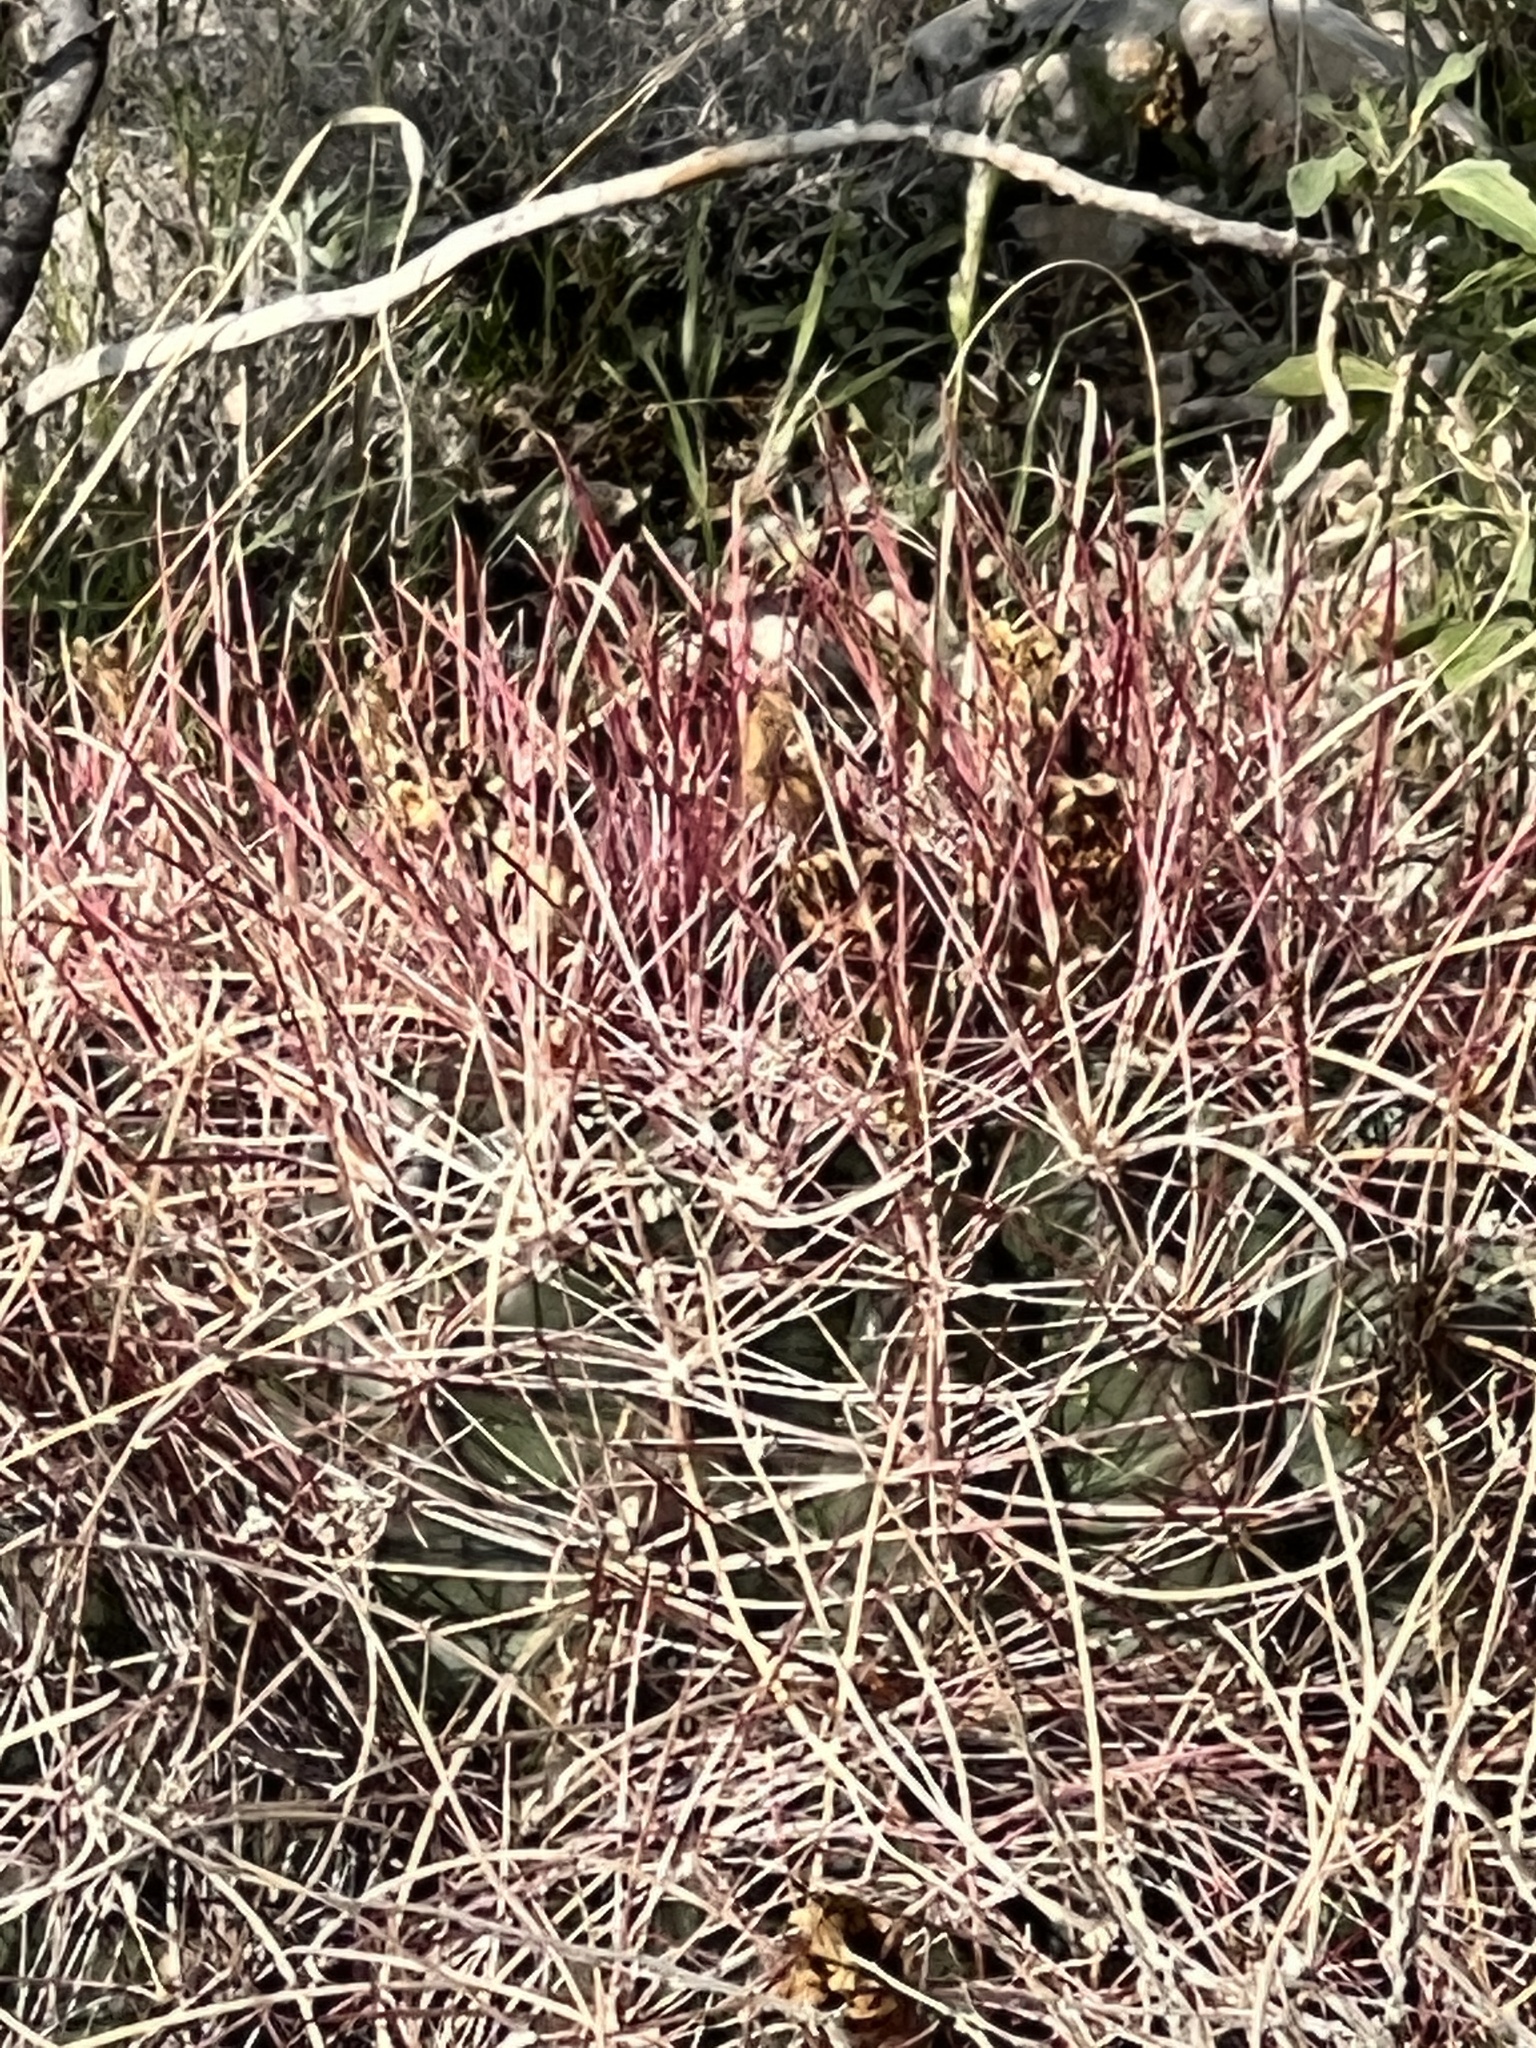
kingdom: Plantae
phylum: Tracheophyta
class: Magnoliopsida
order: Caryophyllales
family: Cactaceae
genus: Bisnaga
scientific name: Bisnaga hamatacantha
